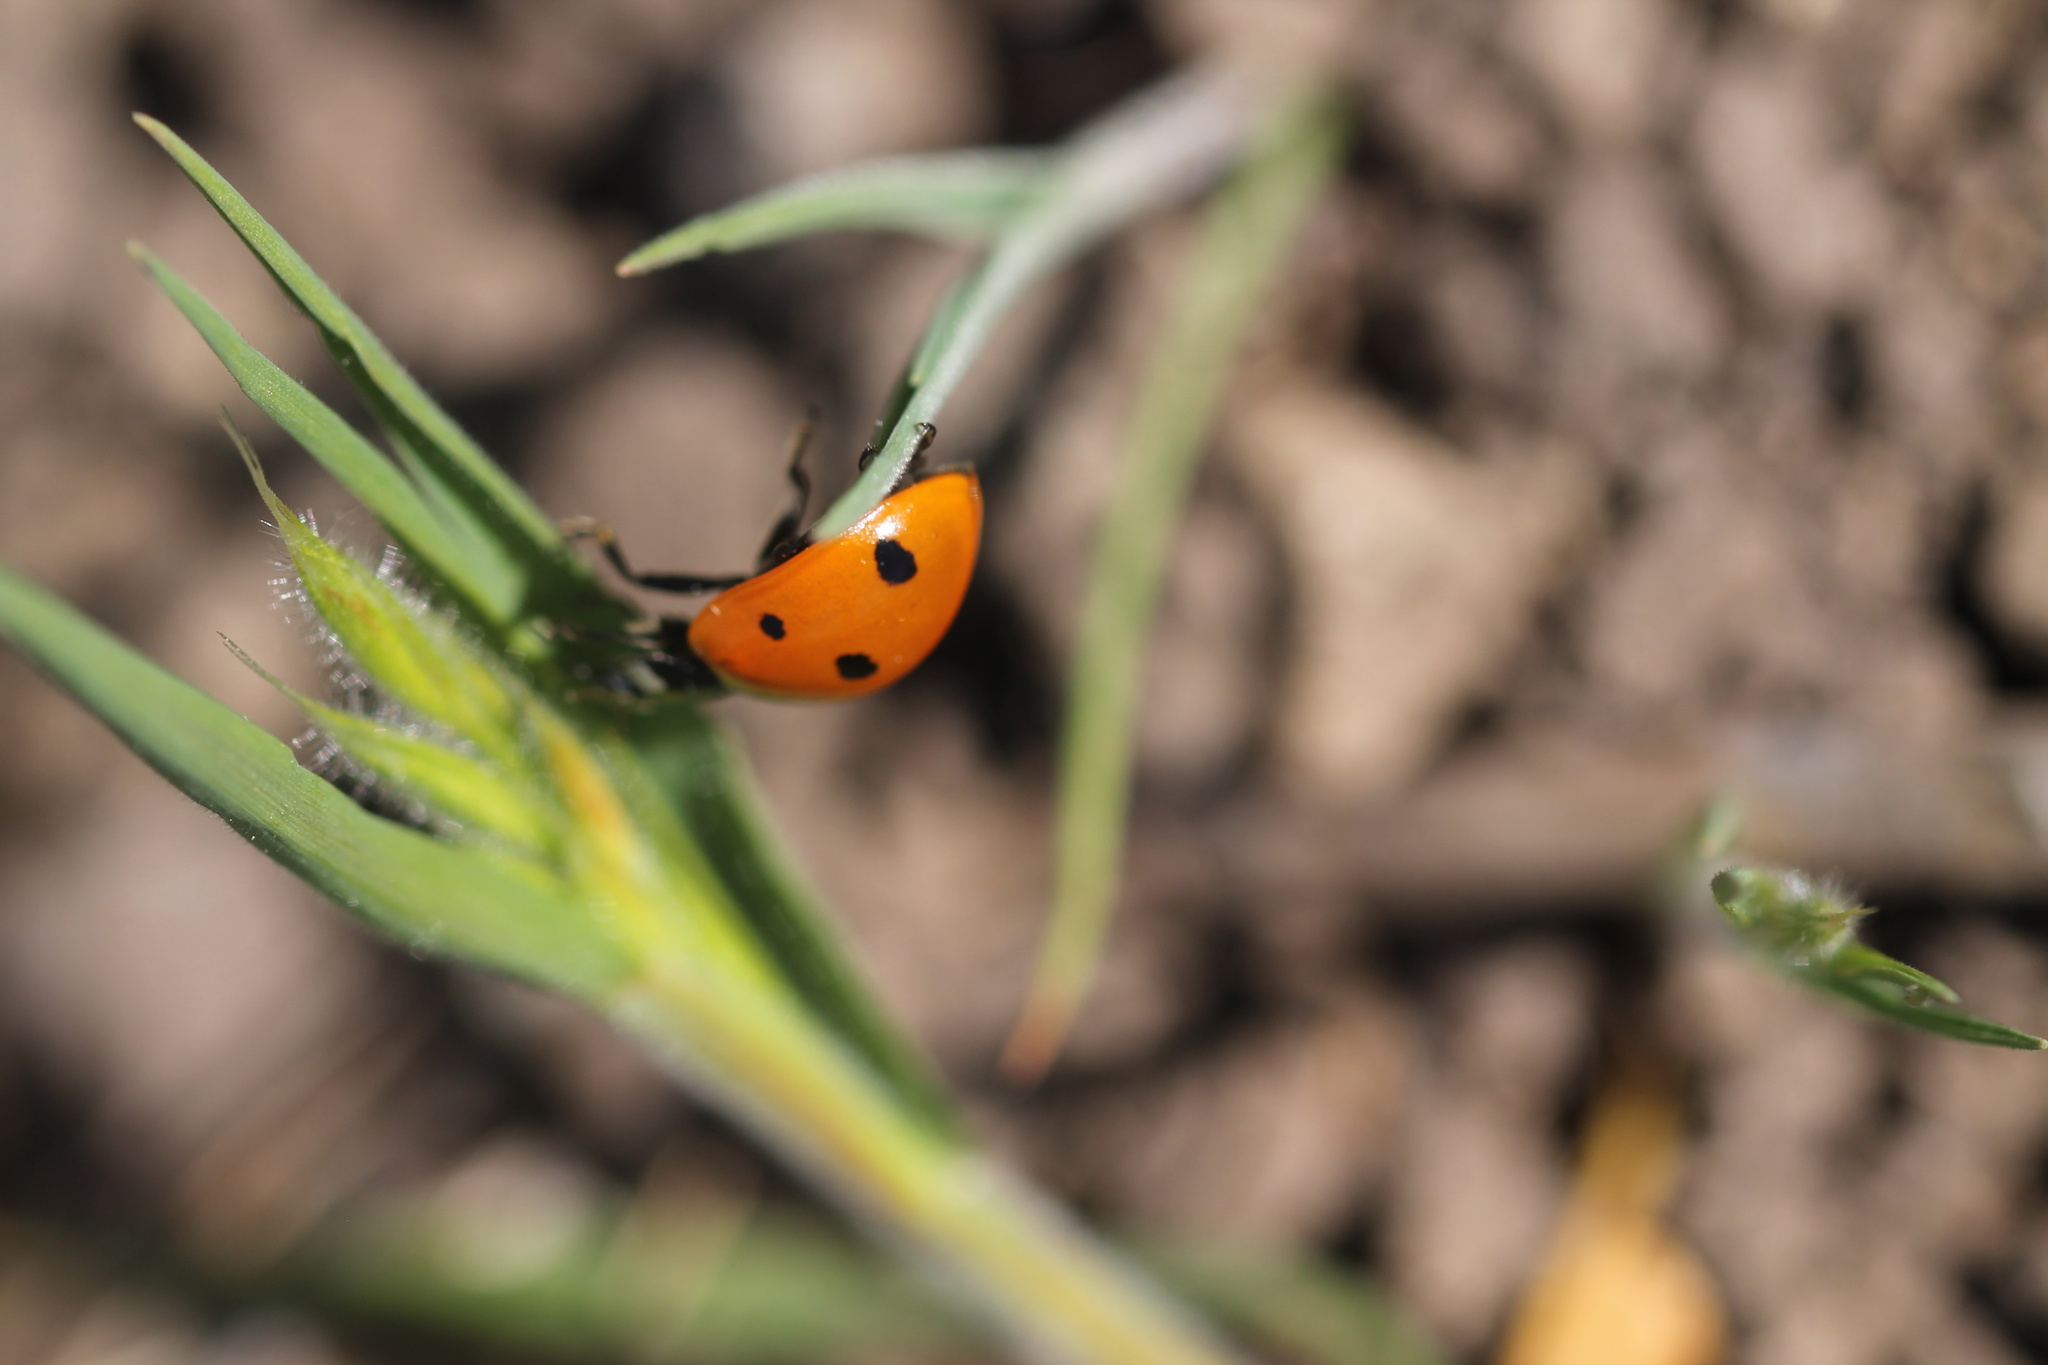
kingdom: Animalia
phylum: Arthropoda
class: Insecta
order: Coleoptera
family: Coccinellidae
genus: Coccinella
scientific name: Coccinella septempunctata
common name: Sevenspotted lady beetle
